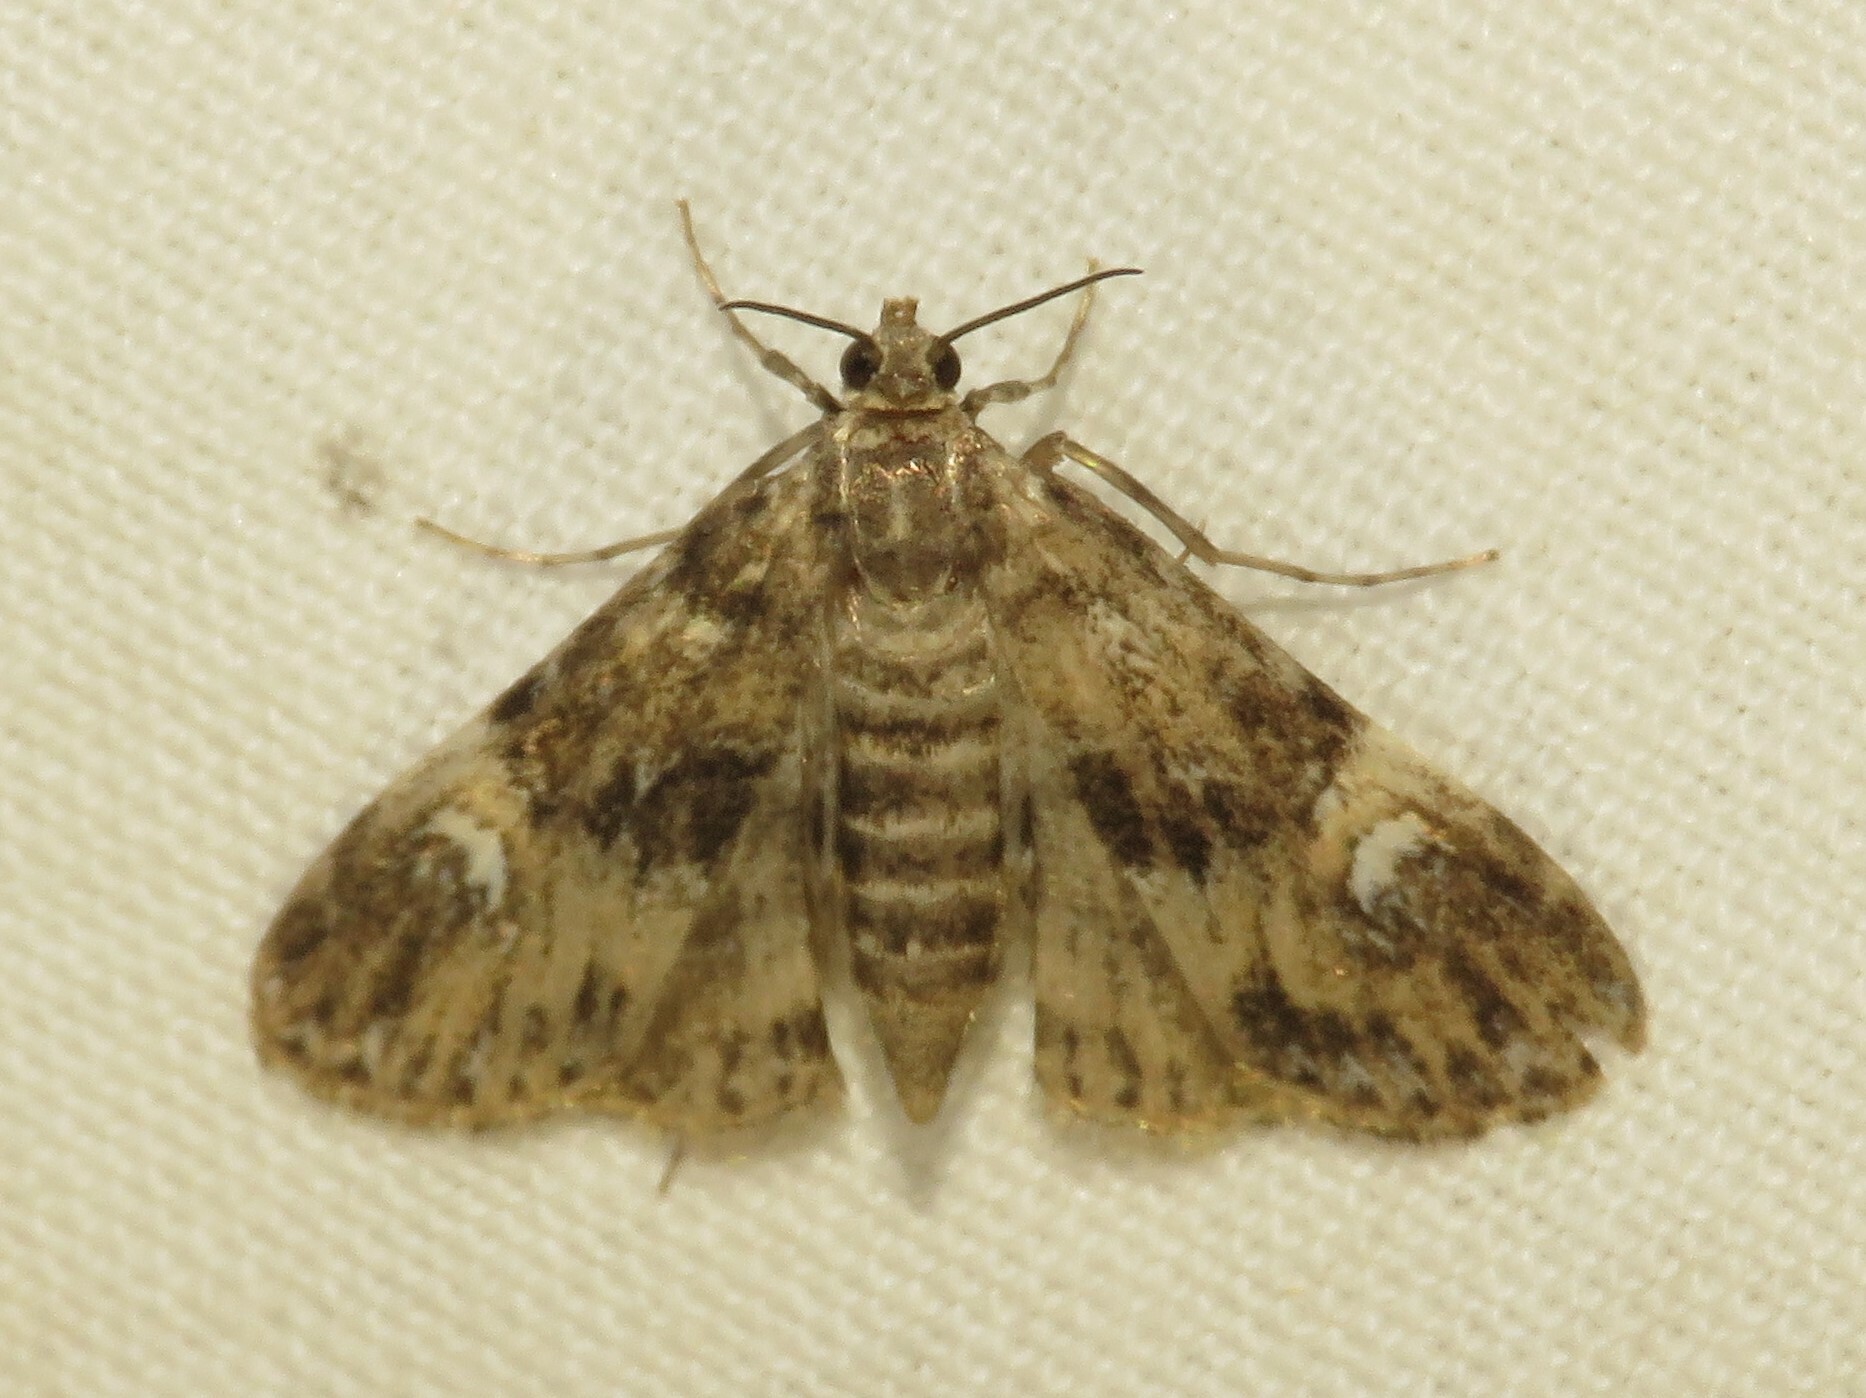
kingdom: Animalia
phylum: Arthropoda
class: Insecta
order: Lepidoptera
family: Crambidae
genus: Elophila
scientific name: Elophila obliteralis
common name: Waterlily leafcutter moth
